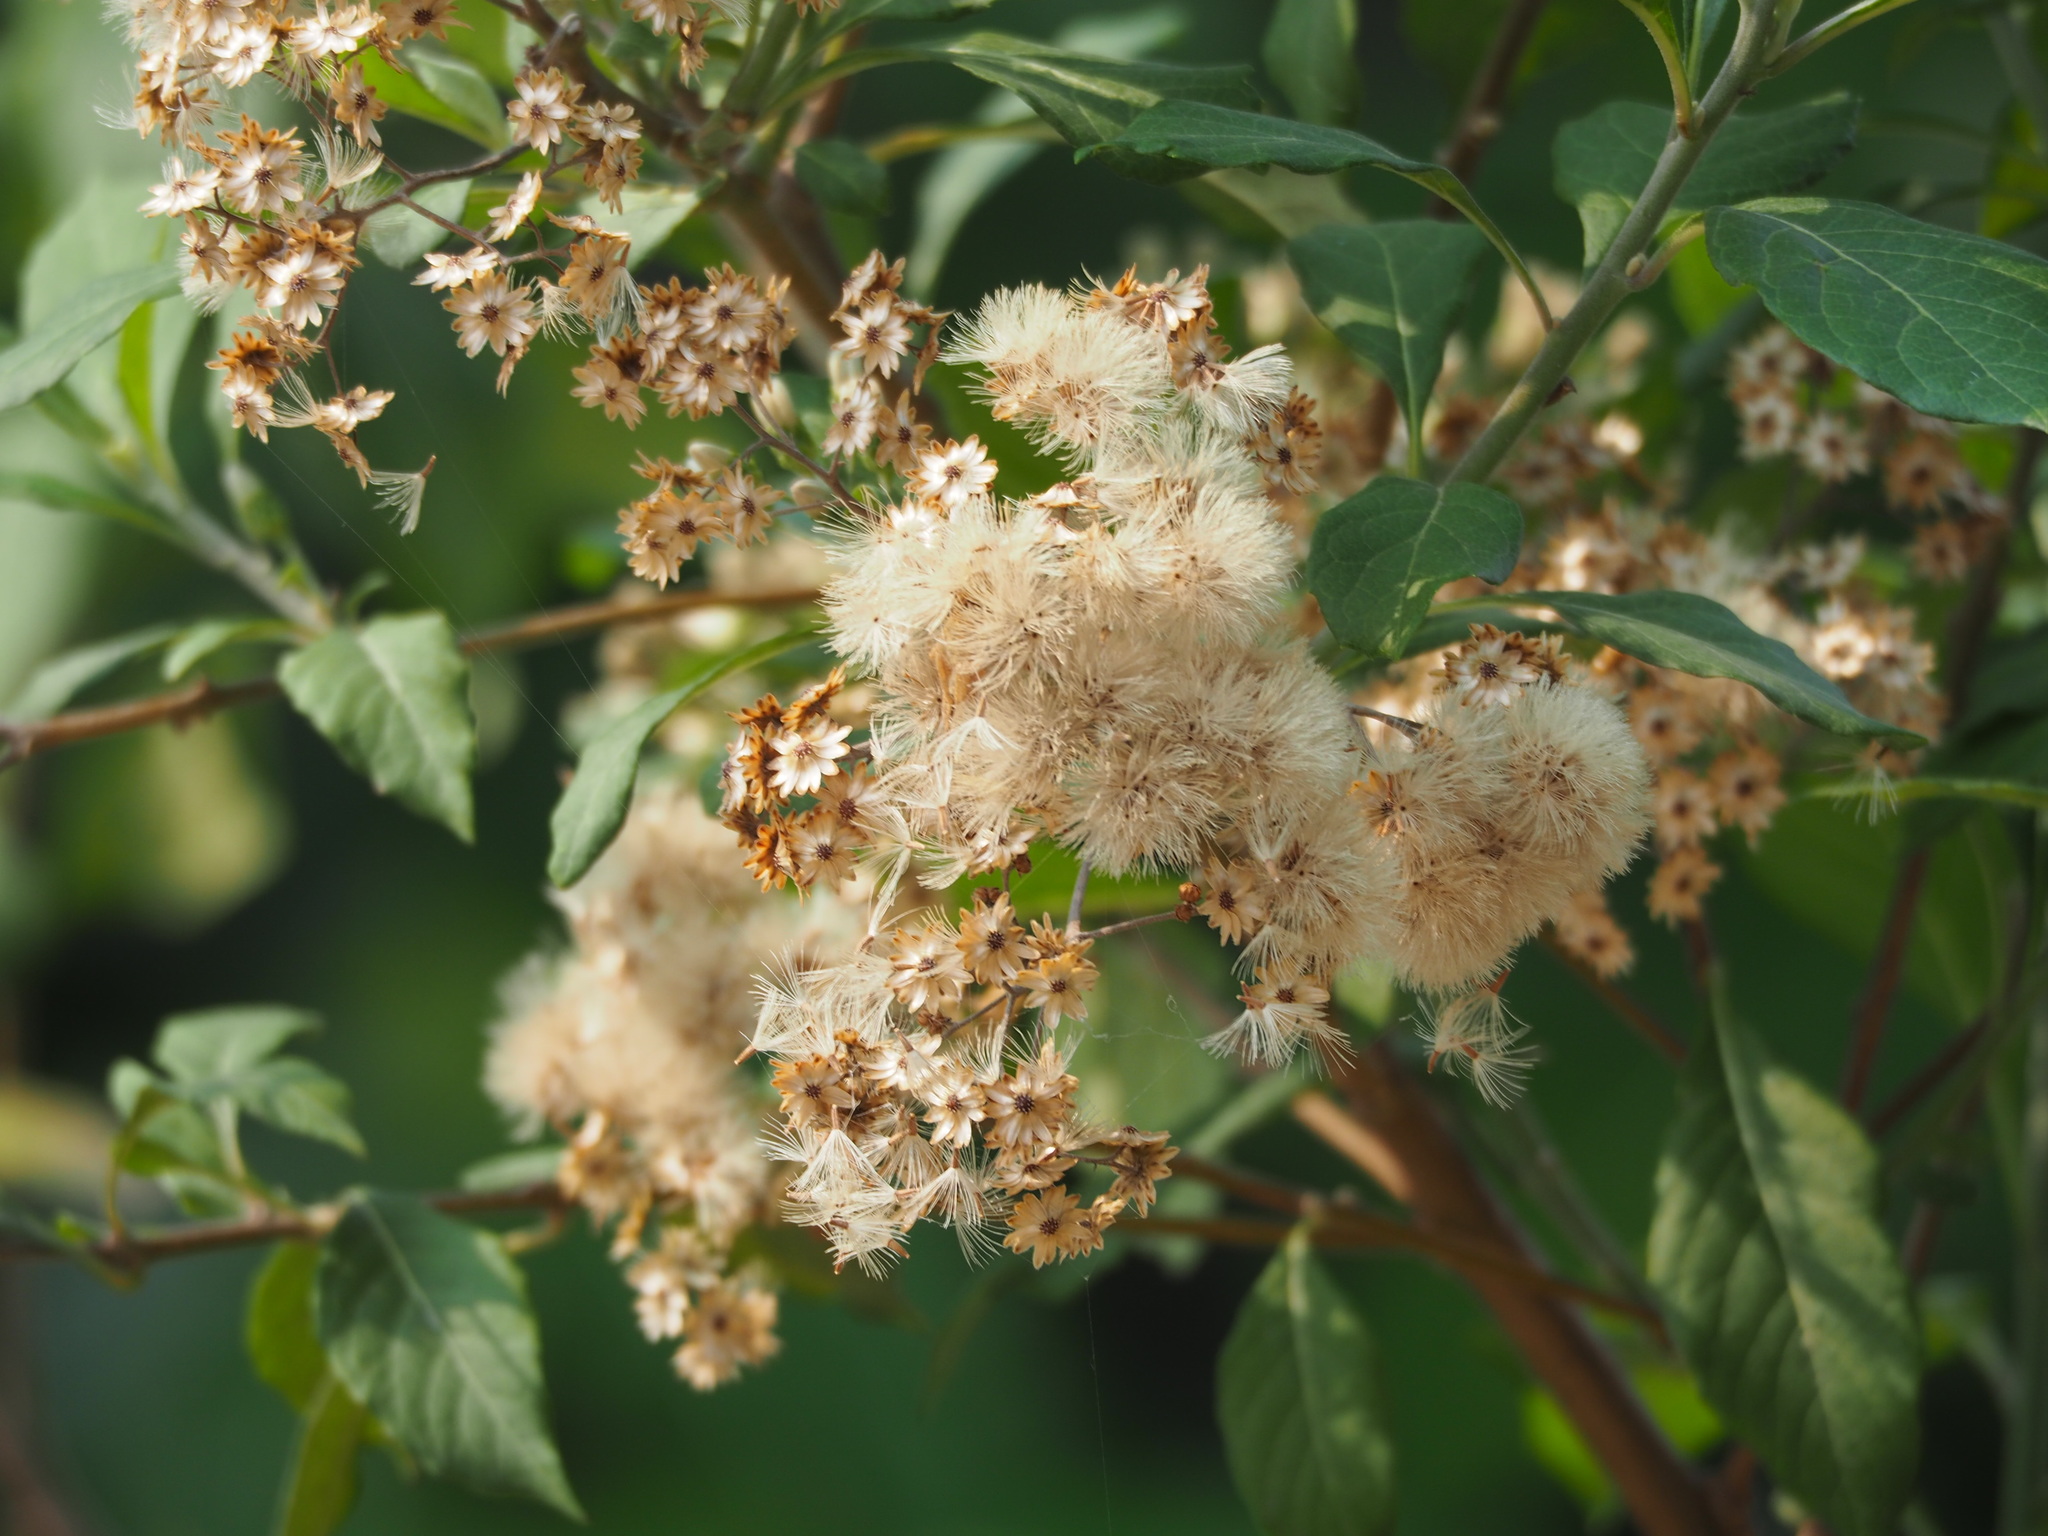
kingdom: Plantae
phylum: Tracheophyta
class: Magnoliopsida
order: Asterales
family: Asteraceae
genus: Gymnanthemum
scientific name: Gymnanthemum amygdalinum
